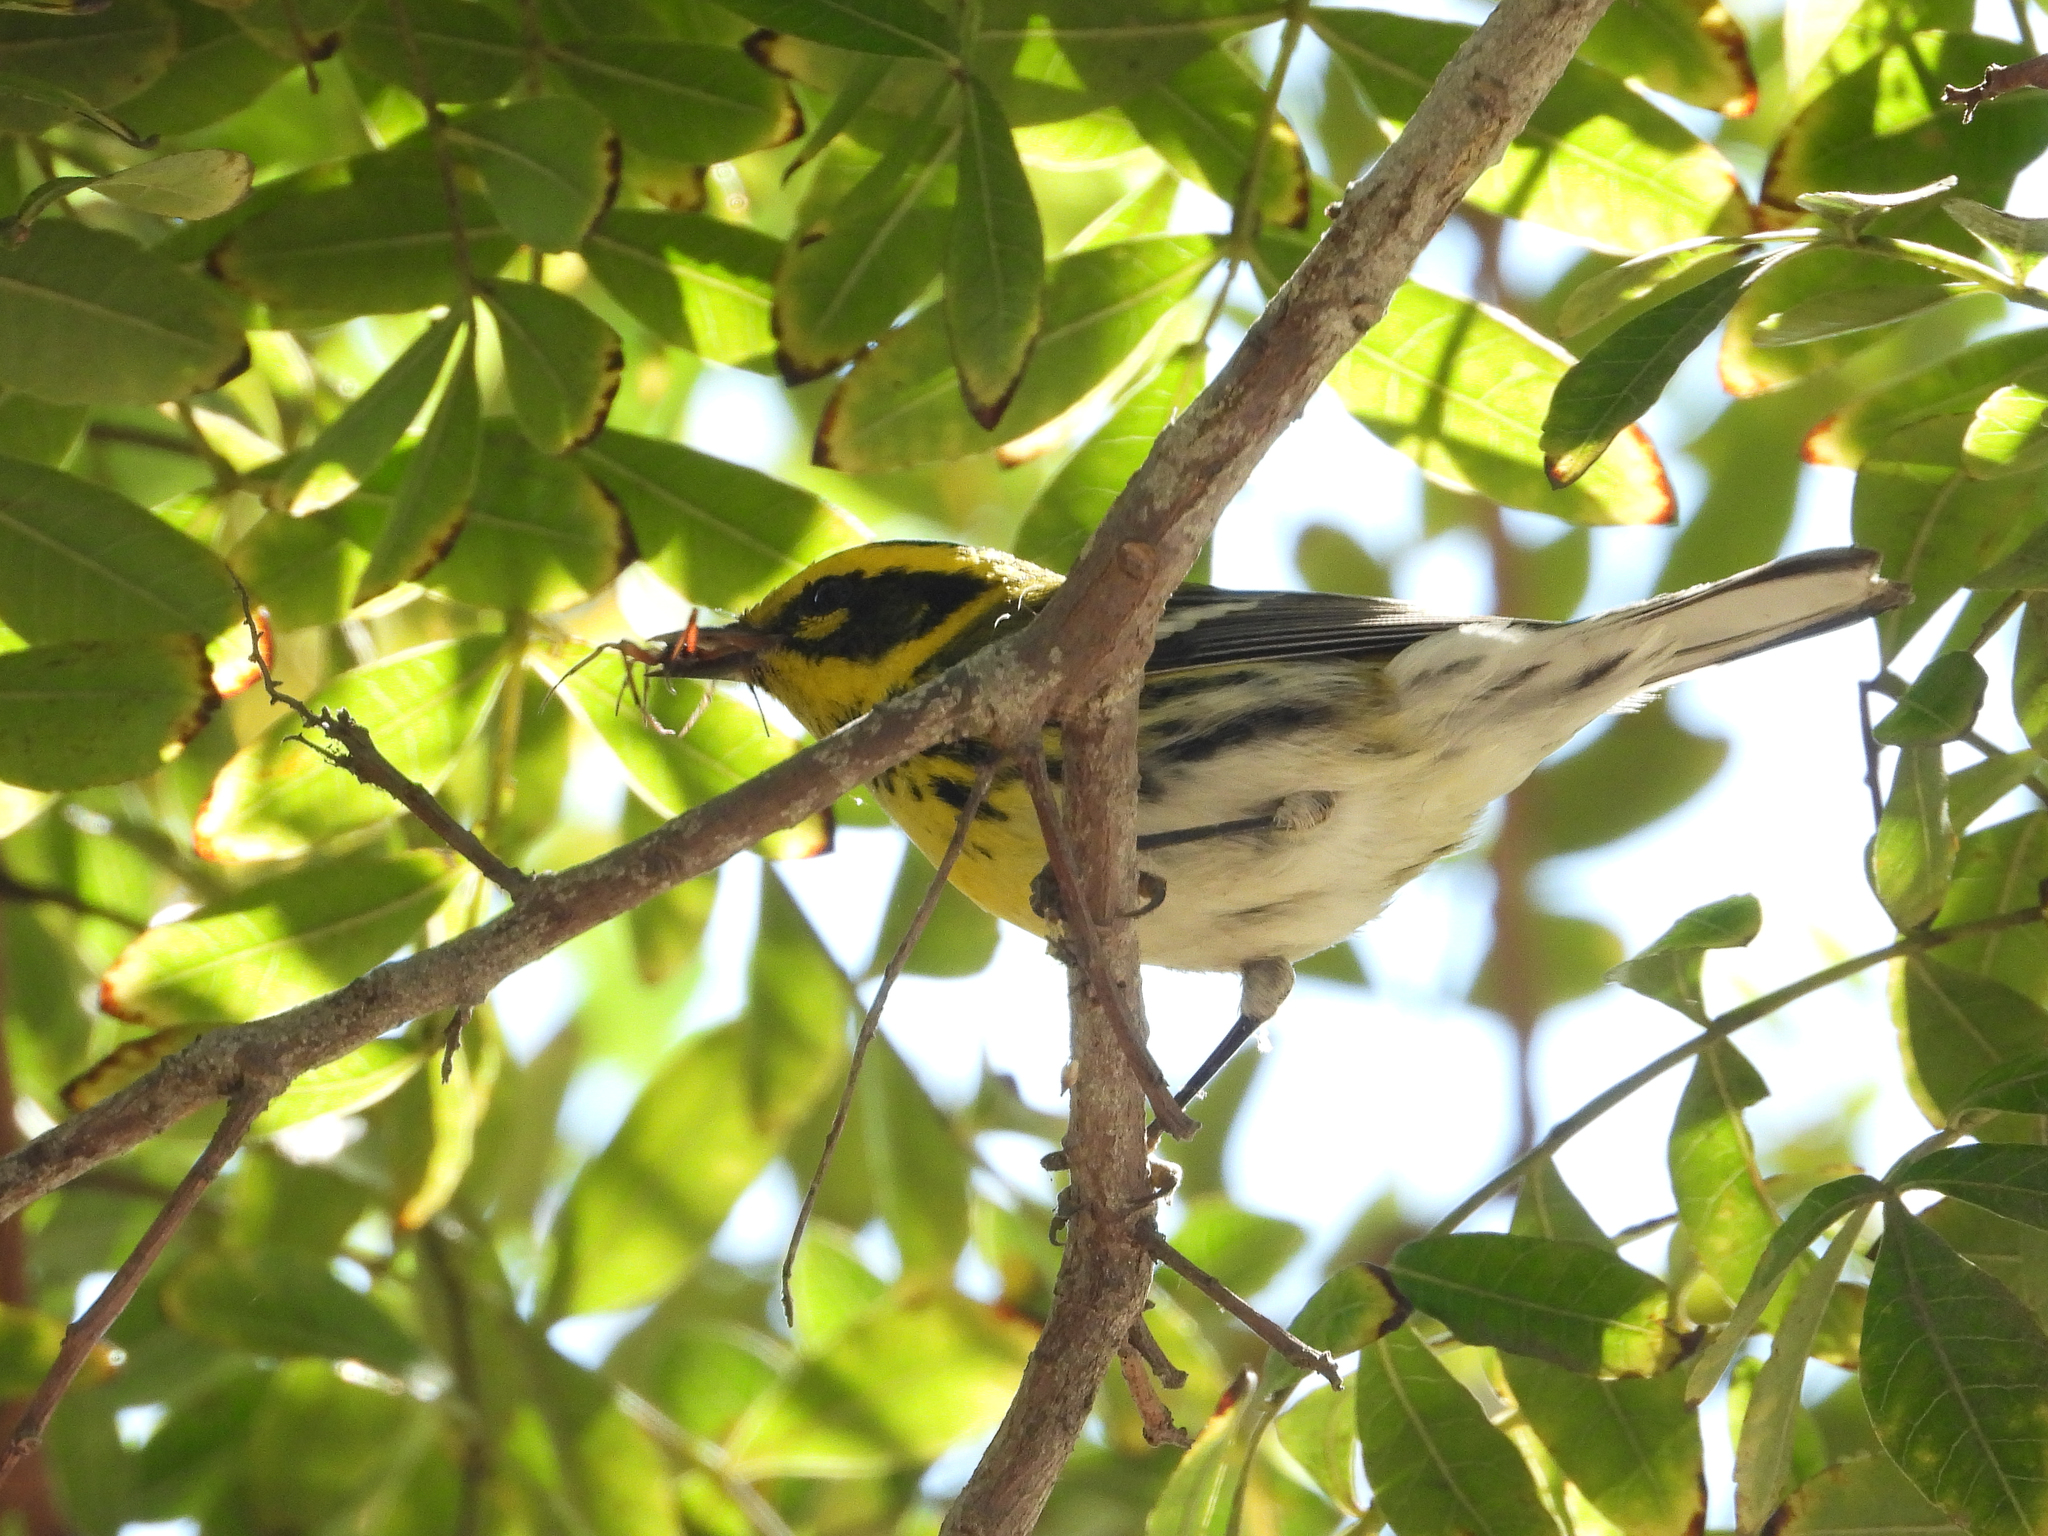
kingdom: Animalia
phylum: Chordata
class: Aves
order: Passeriformes
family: Parulidae
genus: Setophaga
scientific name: Setophaga townsendi
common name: Townsend's warbler
